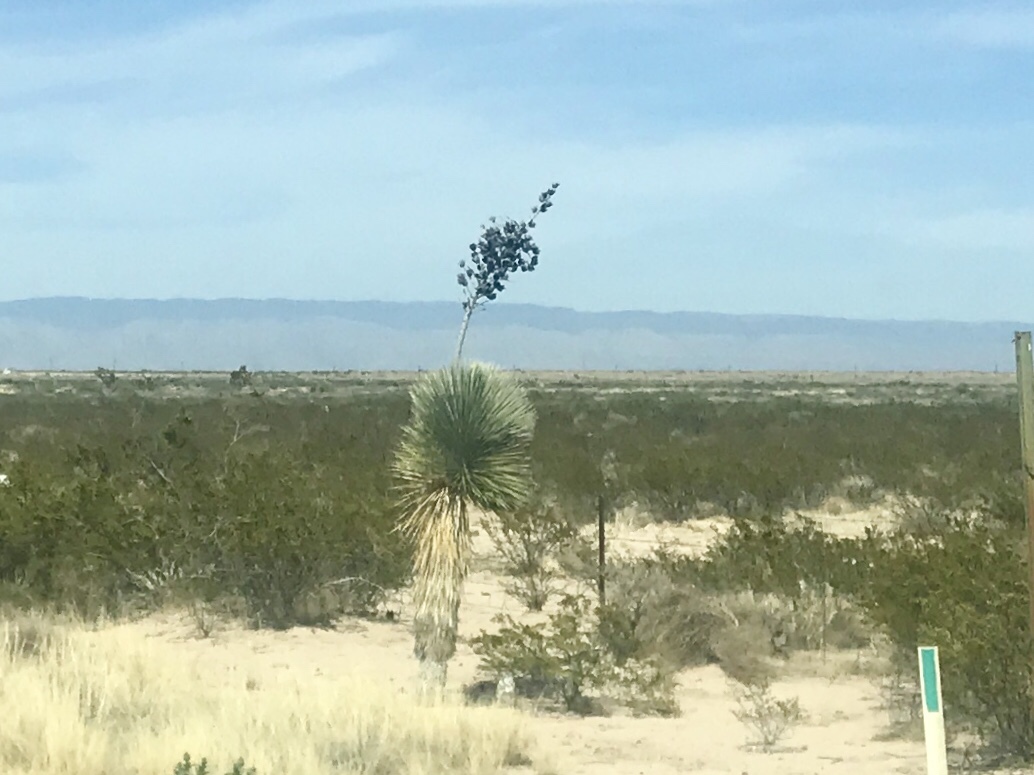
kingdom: Plantae
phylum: Tracheophyta
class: Liliopsida
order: Asparagales
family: Asparagaceae
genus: Yucca
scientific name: Yucca elata
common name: Palmella
